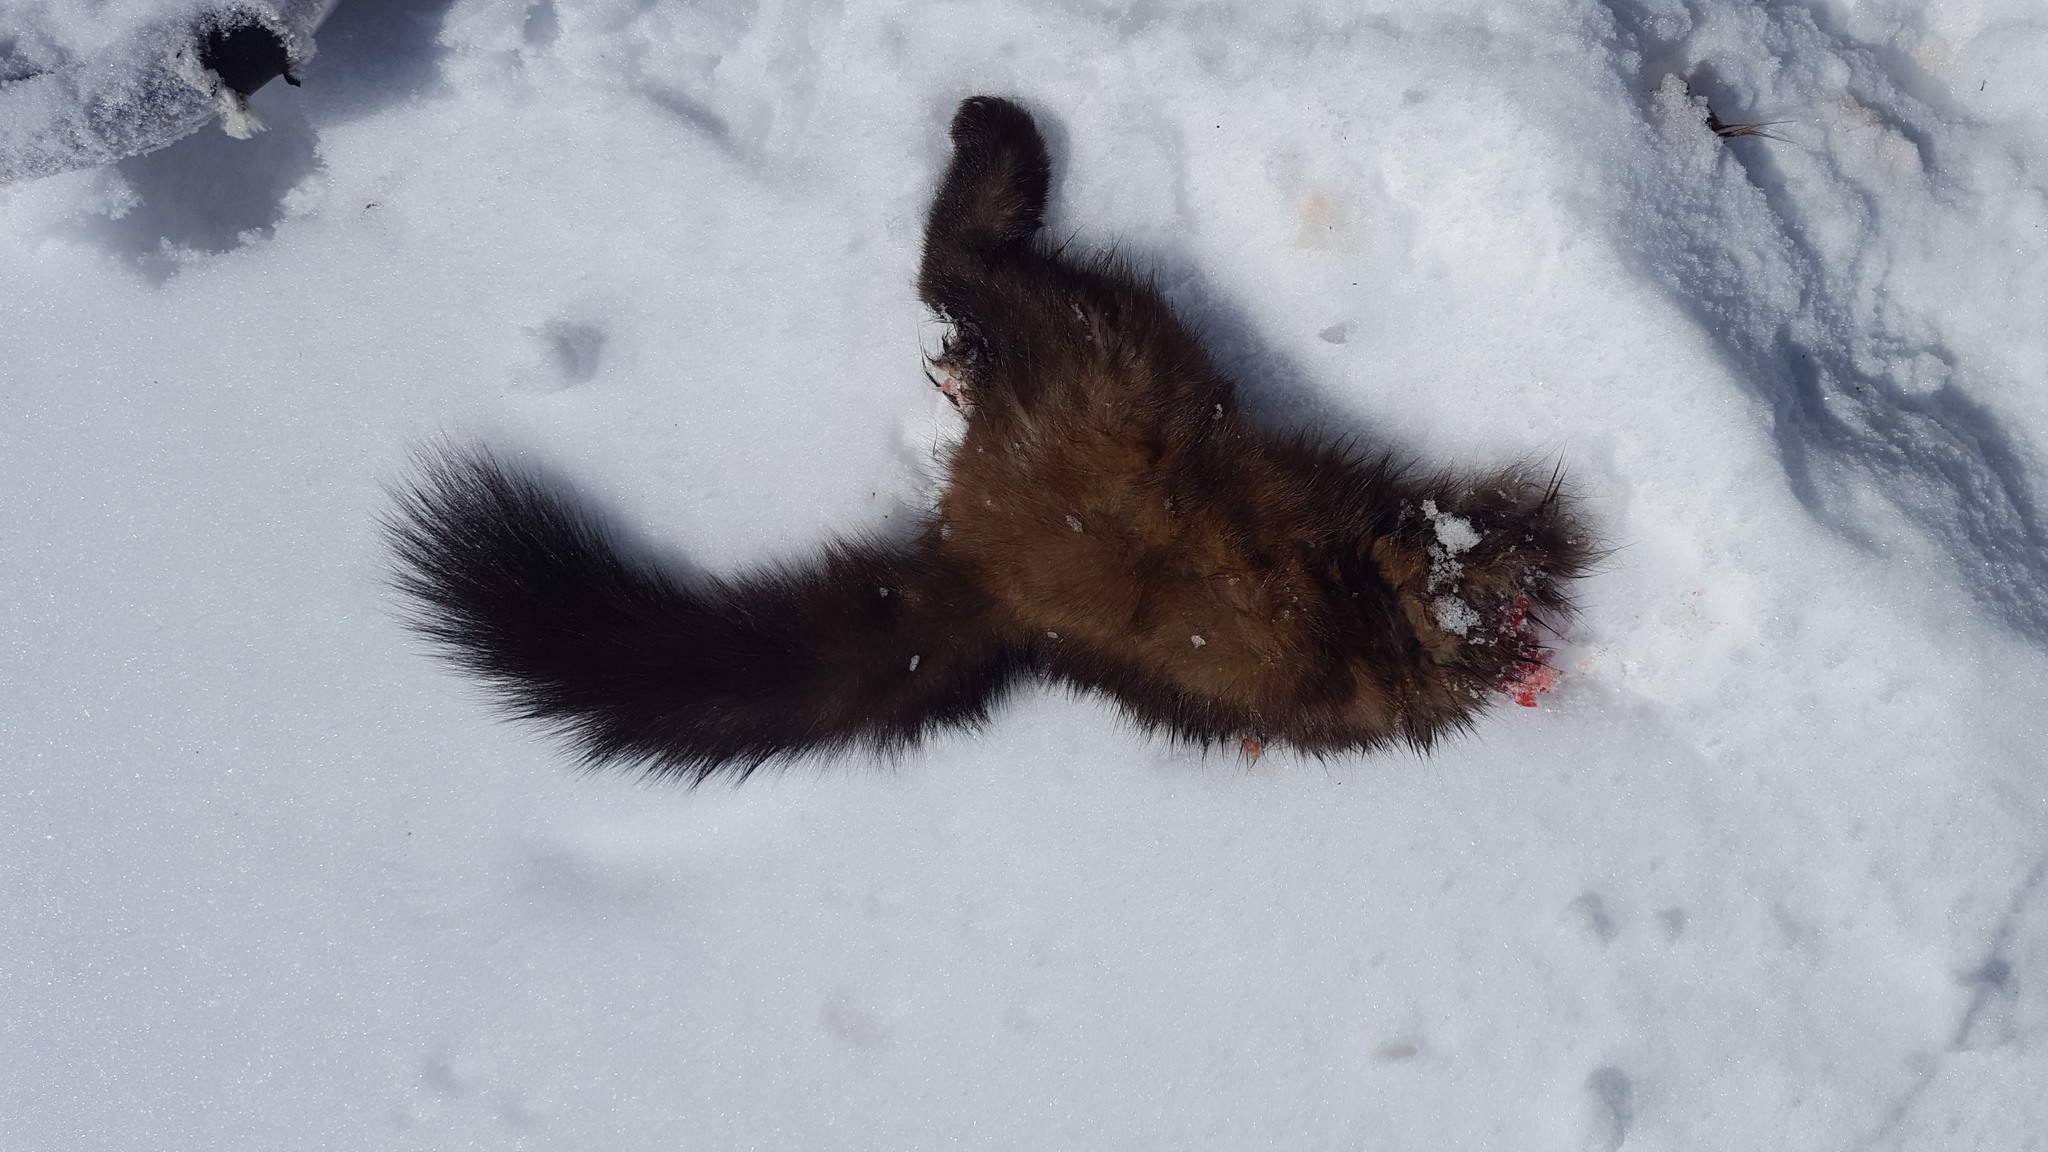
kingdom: Animalia
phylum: Chordata
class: Mammalia
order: Carnivora
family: Mustelidae
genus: Martes
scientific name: Martes americana
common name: American marten
